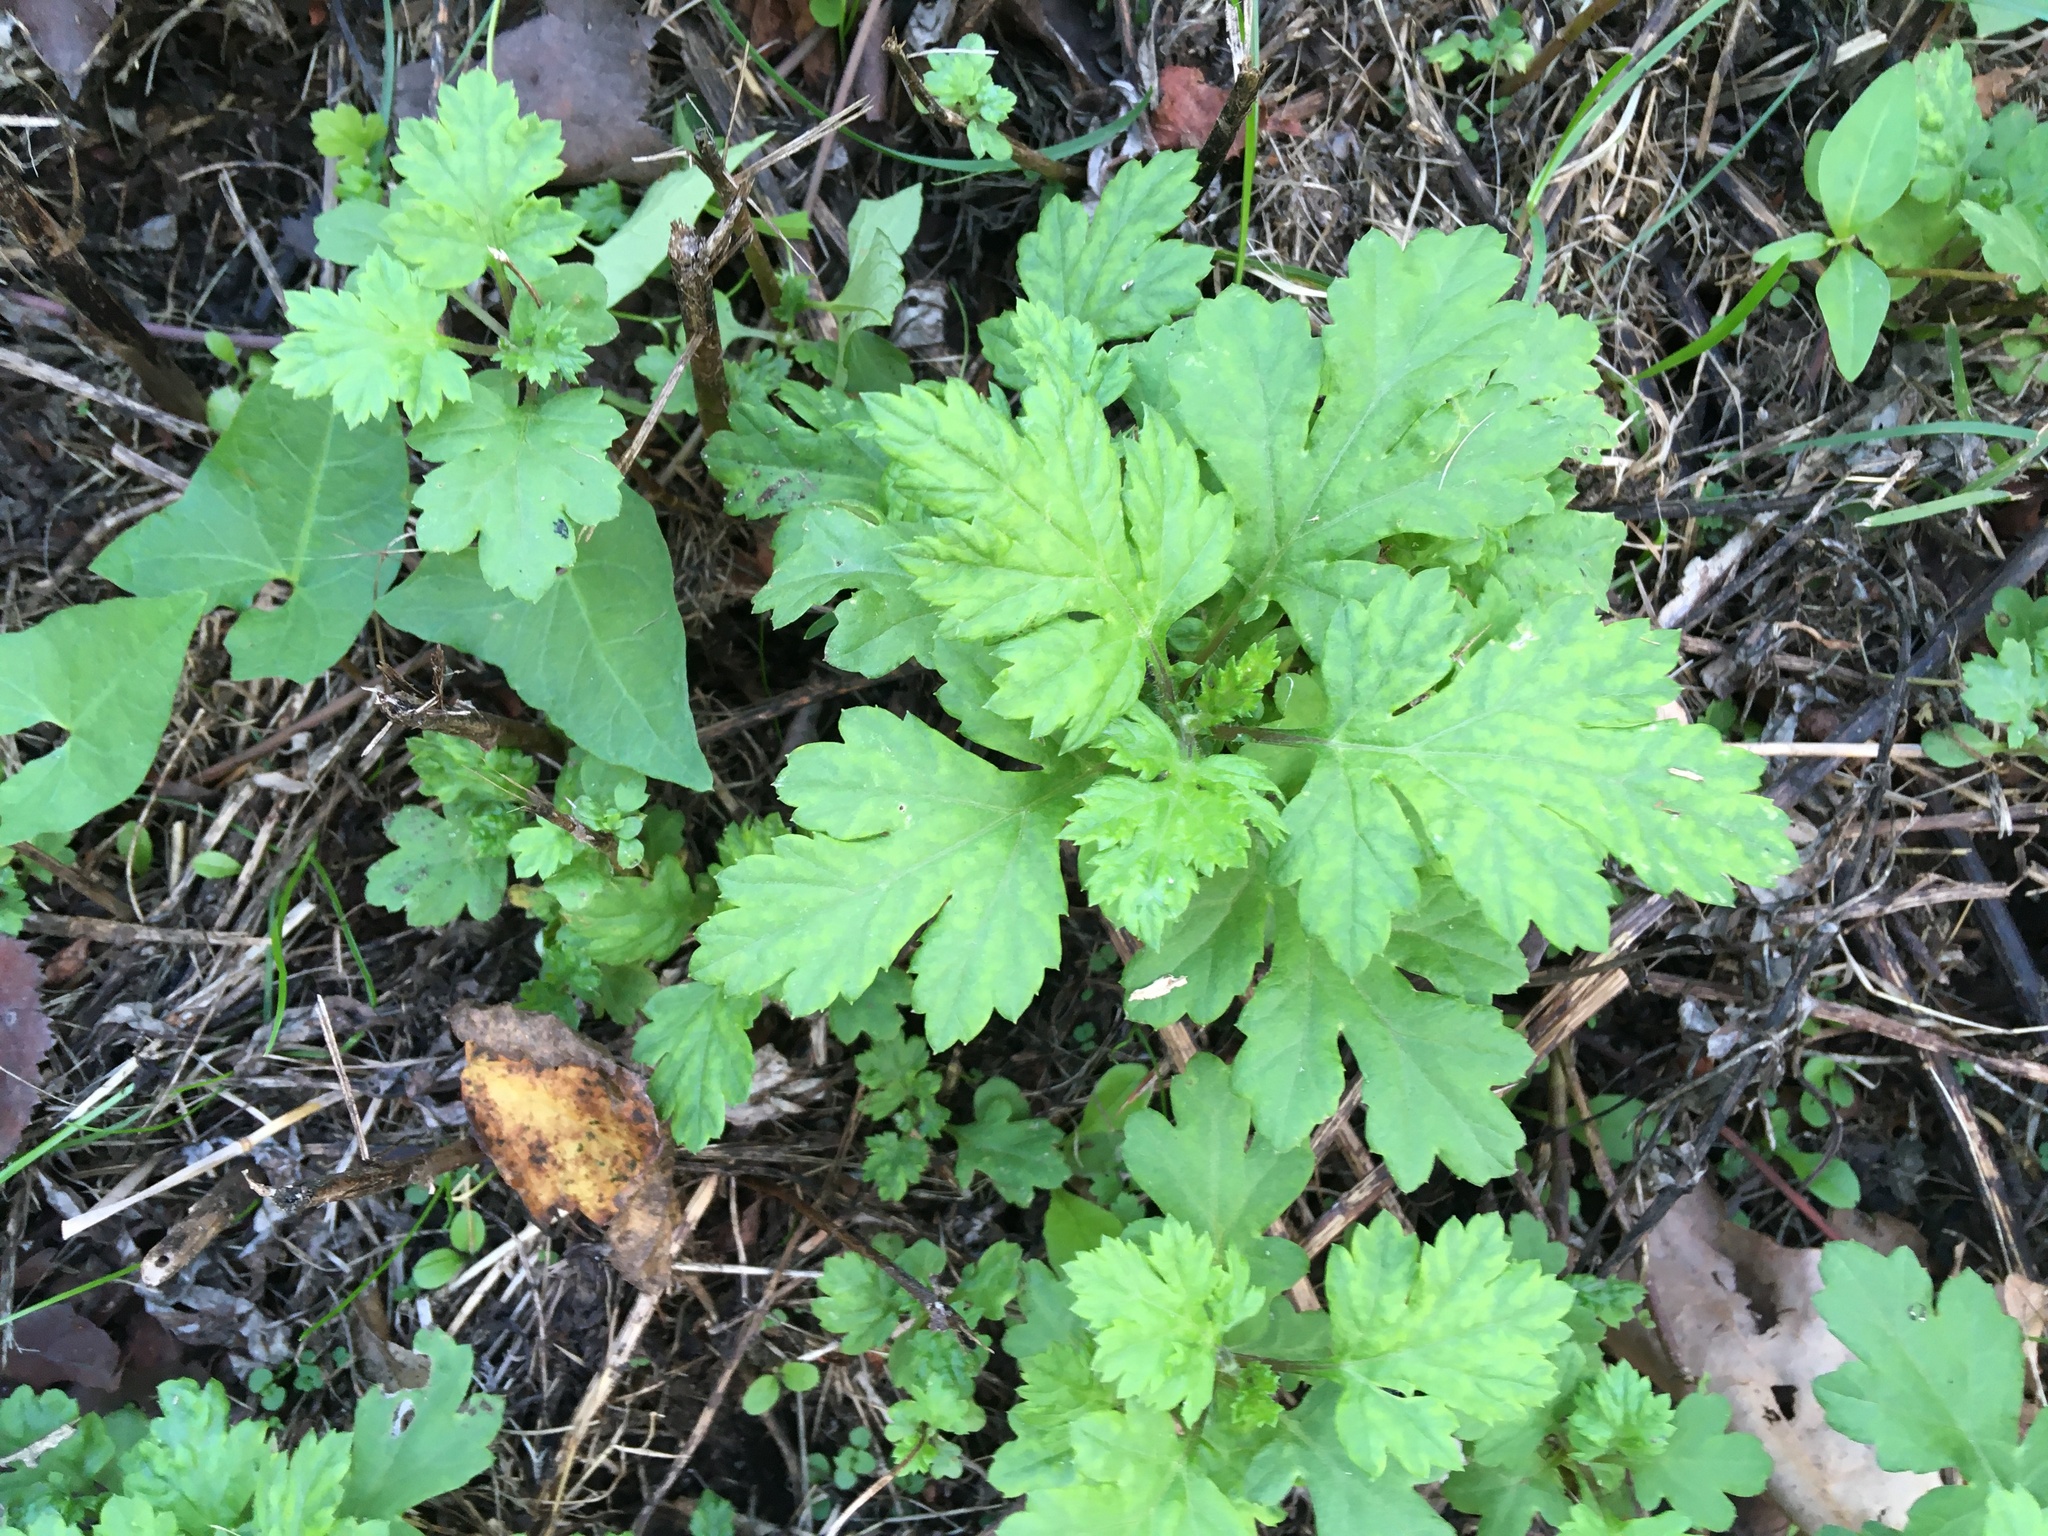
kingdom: Plantae
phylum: Tracheophyta
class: Magnoliopsida
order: Asterales
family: Asteraceae
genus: Artemisia
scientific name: Artemisia vulgaris
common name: Mugwort
